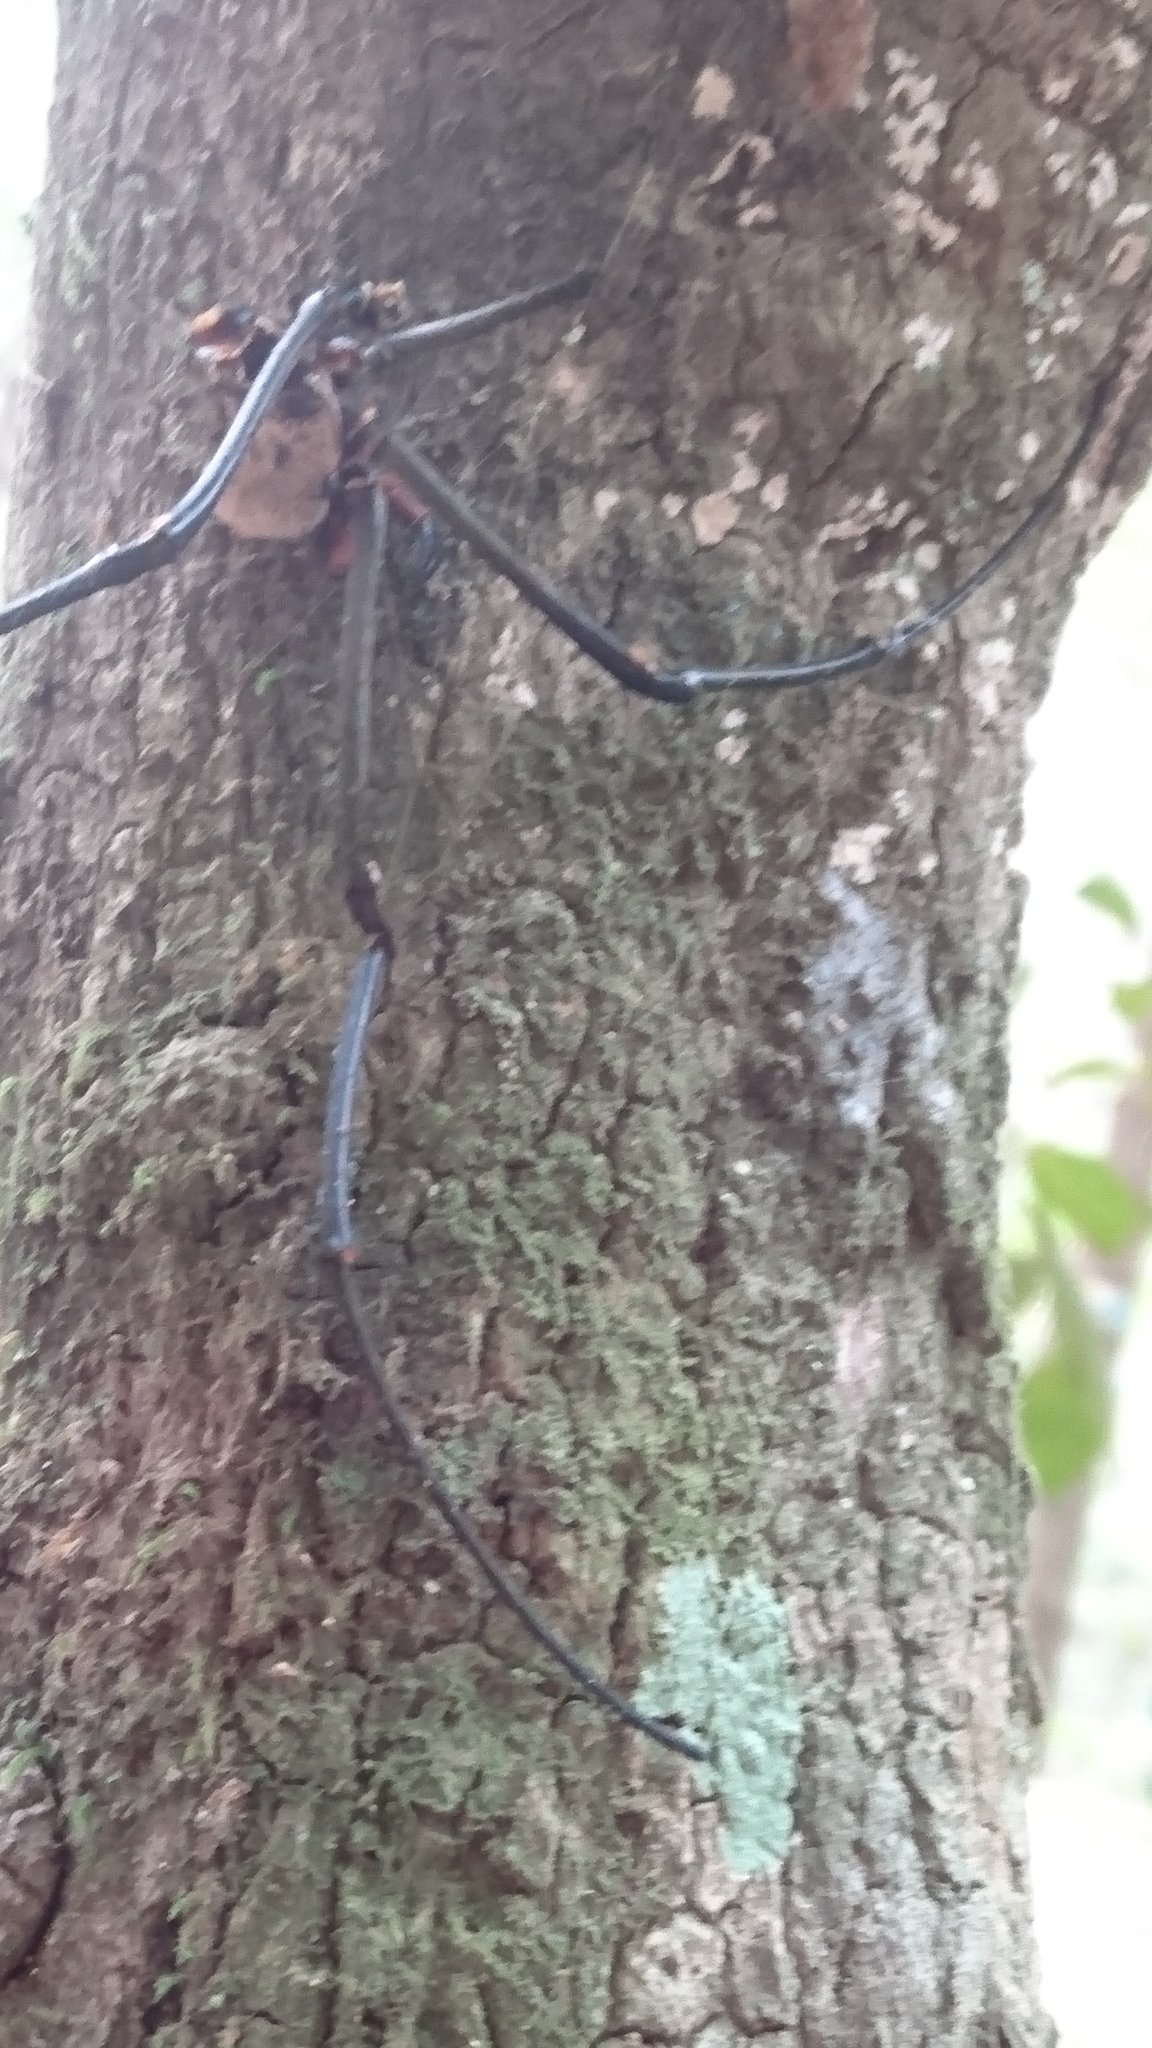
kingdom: Animalia
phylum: Arthropoda
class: Arachnida
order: Araneae
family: Araneidae
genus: Nephila
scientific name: Nephila pilipes
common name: Giant golden orb weaver
